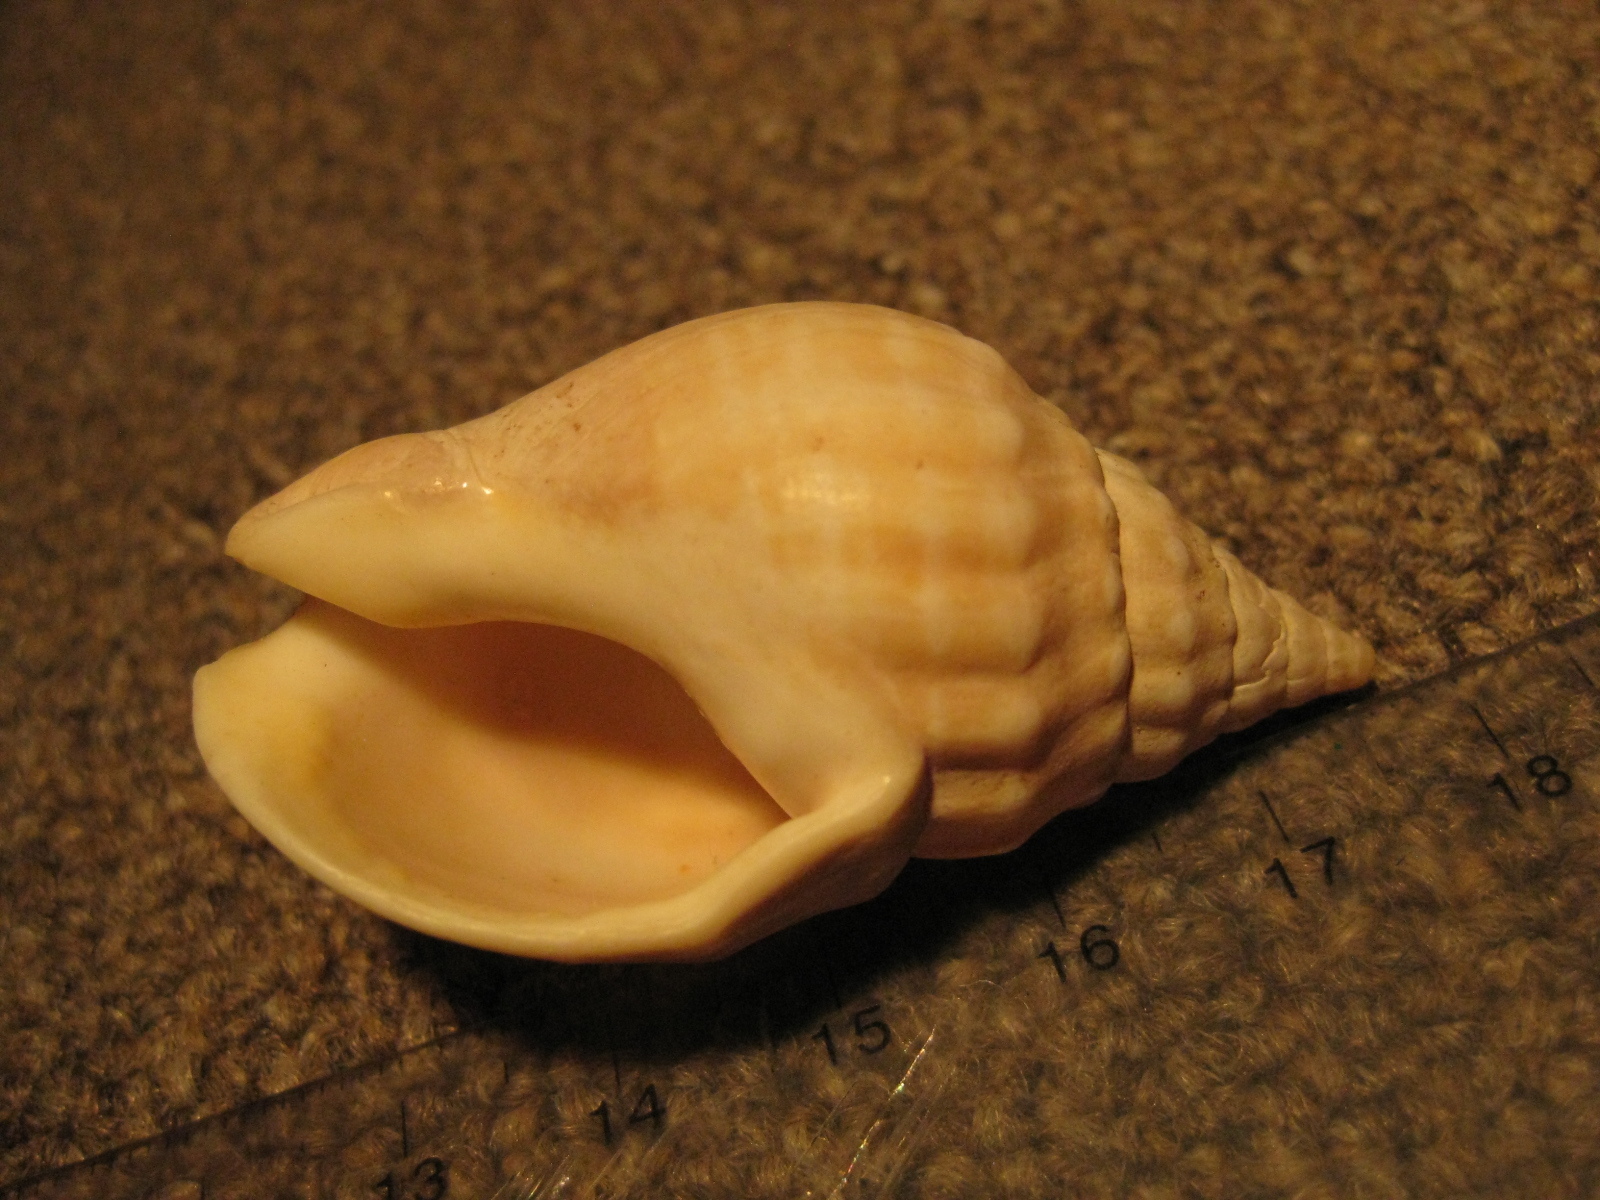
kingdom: Animalia
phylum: Mollusca
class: Gastropoda
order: Neogastropoda
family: Cominellidae
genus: Cominella
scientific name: Cominella nassoides
